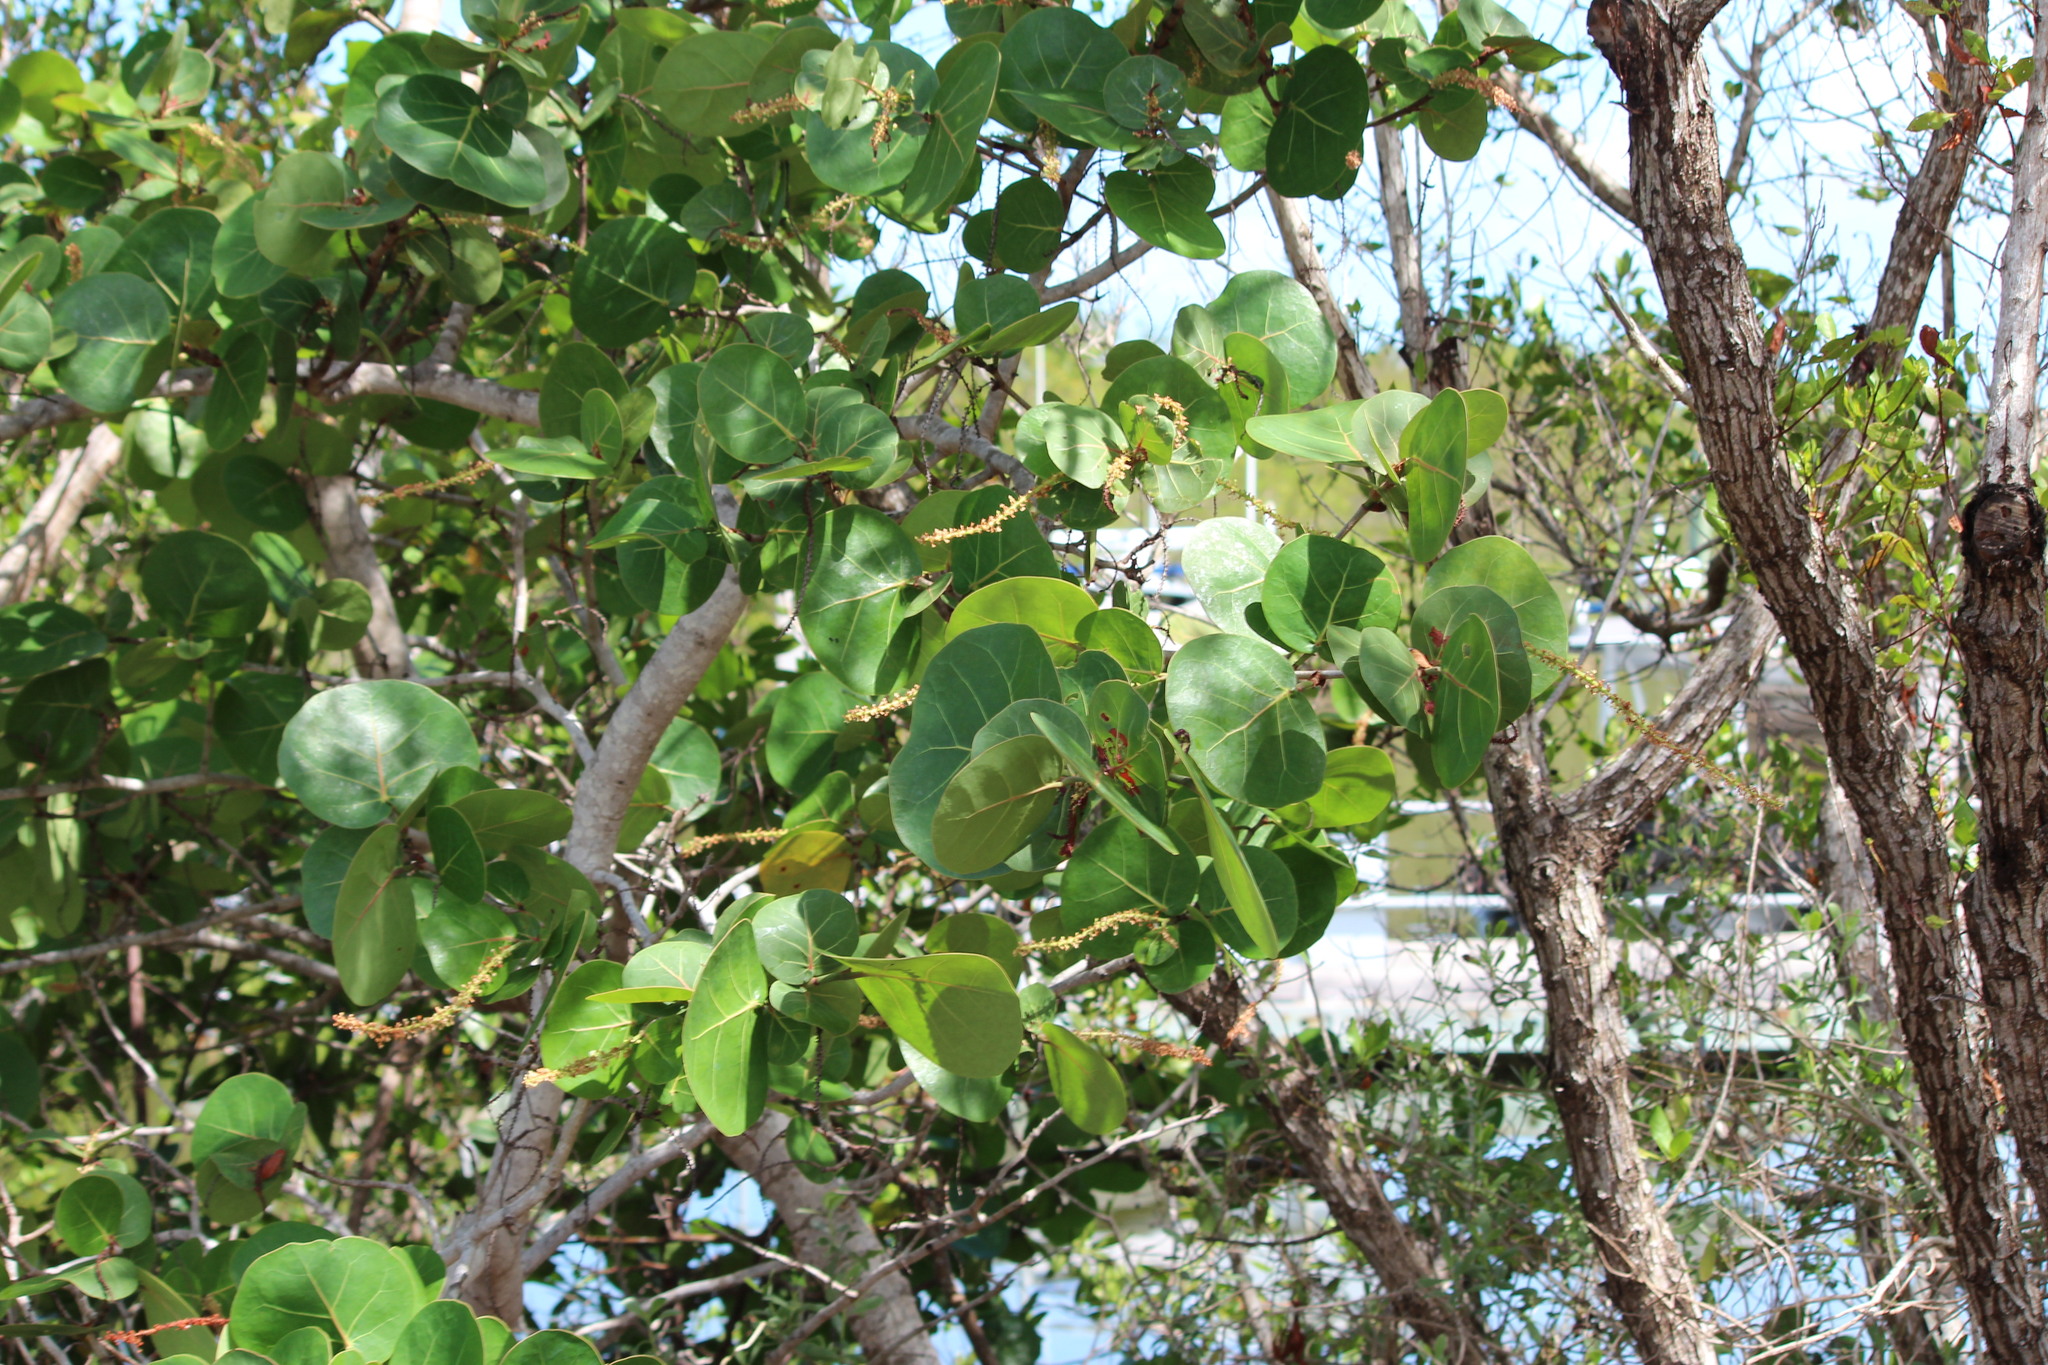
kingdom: Plantae
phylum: Tracheophyta
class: Magnoliopsida
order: Caryophyllales
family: Polygonaceae
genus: Coccoloba
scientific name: Coccoloba uvifera
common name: Seagrape
